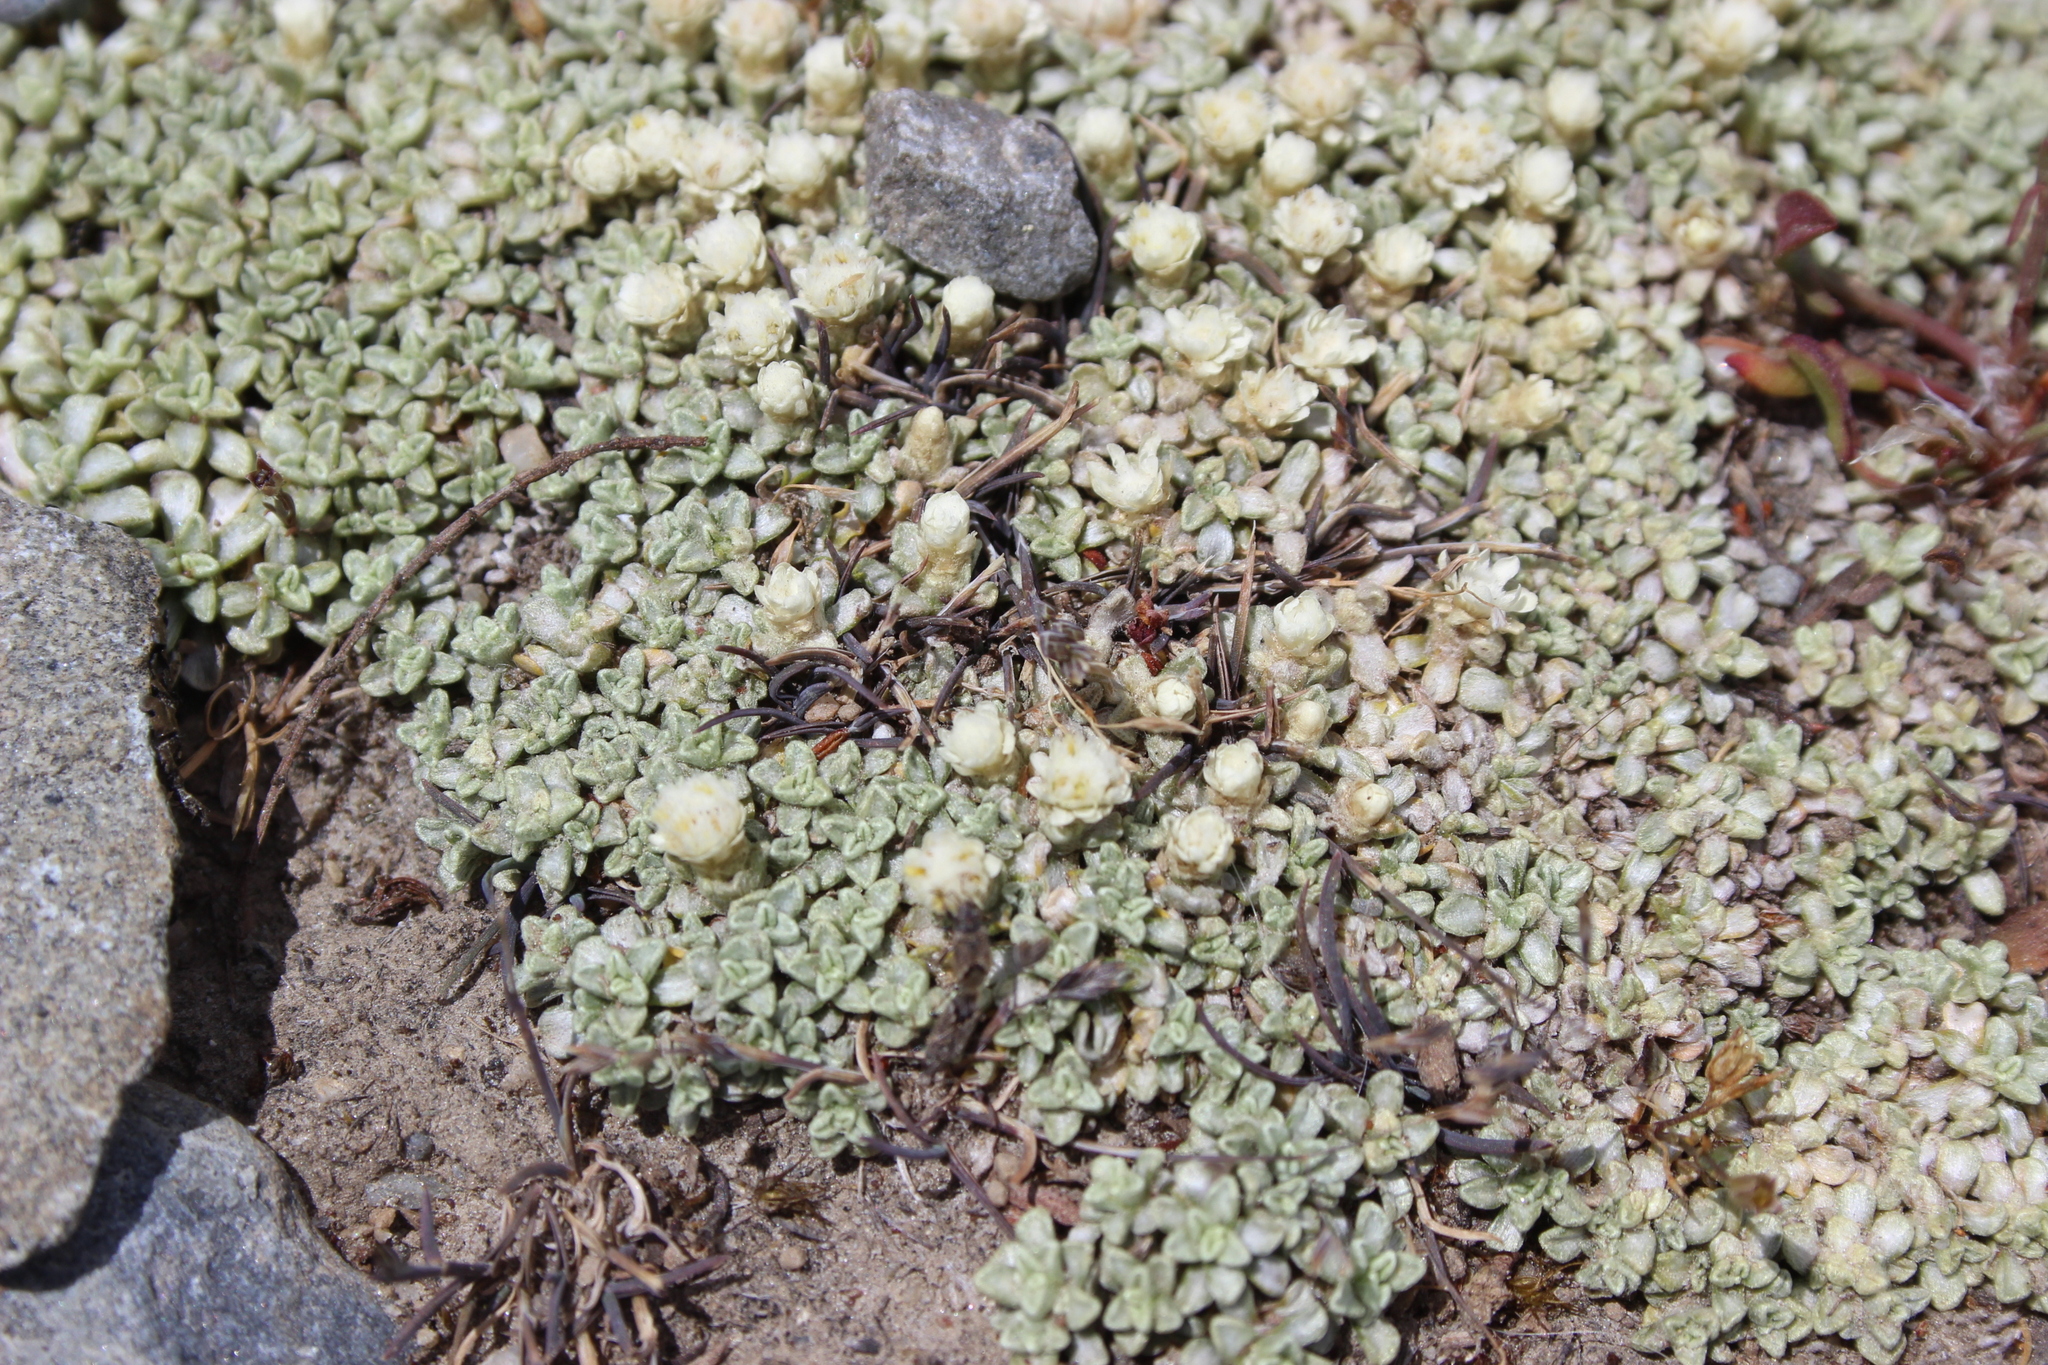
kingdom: Plantae
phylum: Tracheophyta
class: Magnoliopsida
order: Asterales
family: Asteraceae
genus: Raoulia
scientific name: Raoulia parkii
